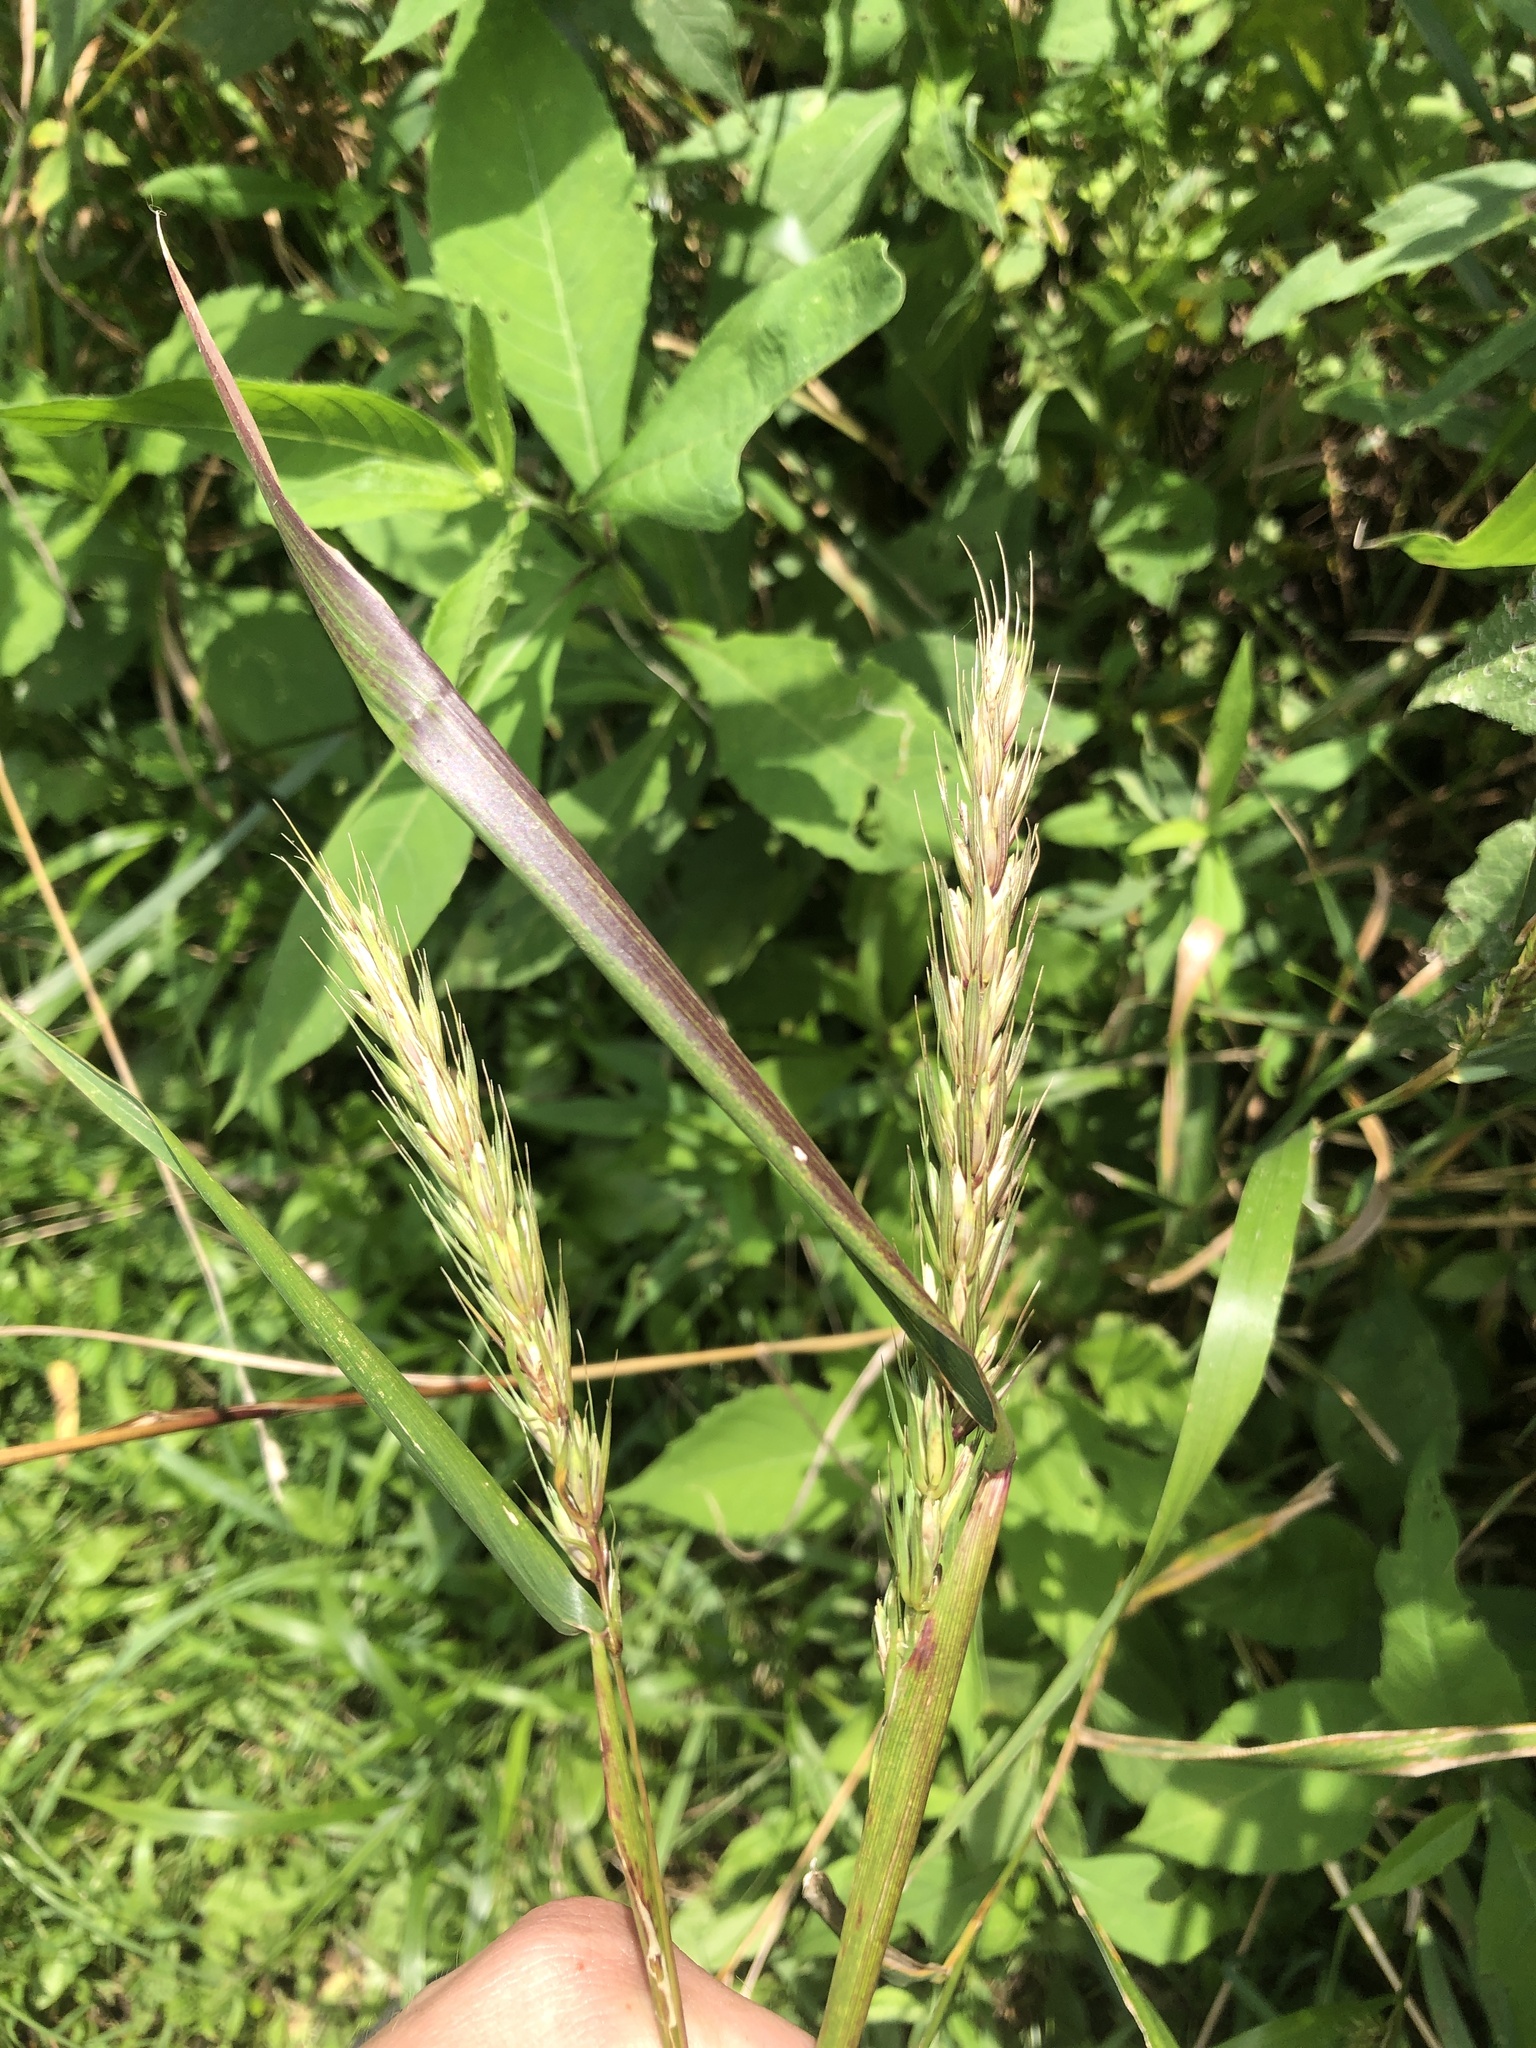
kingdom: Plantae
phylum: Tracheophyta
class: Liliopsida
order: Poales
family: Poaceae
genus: Elymus
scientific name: Elymus virginicus
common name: Common eastern wildrye
